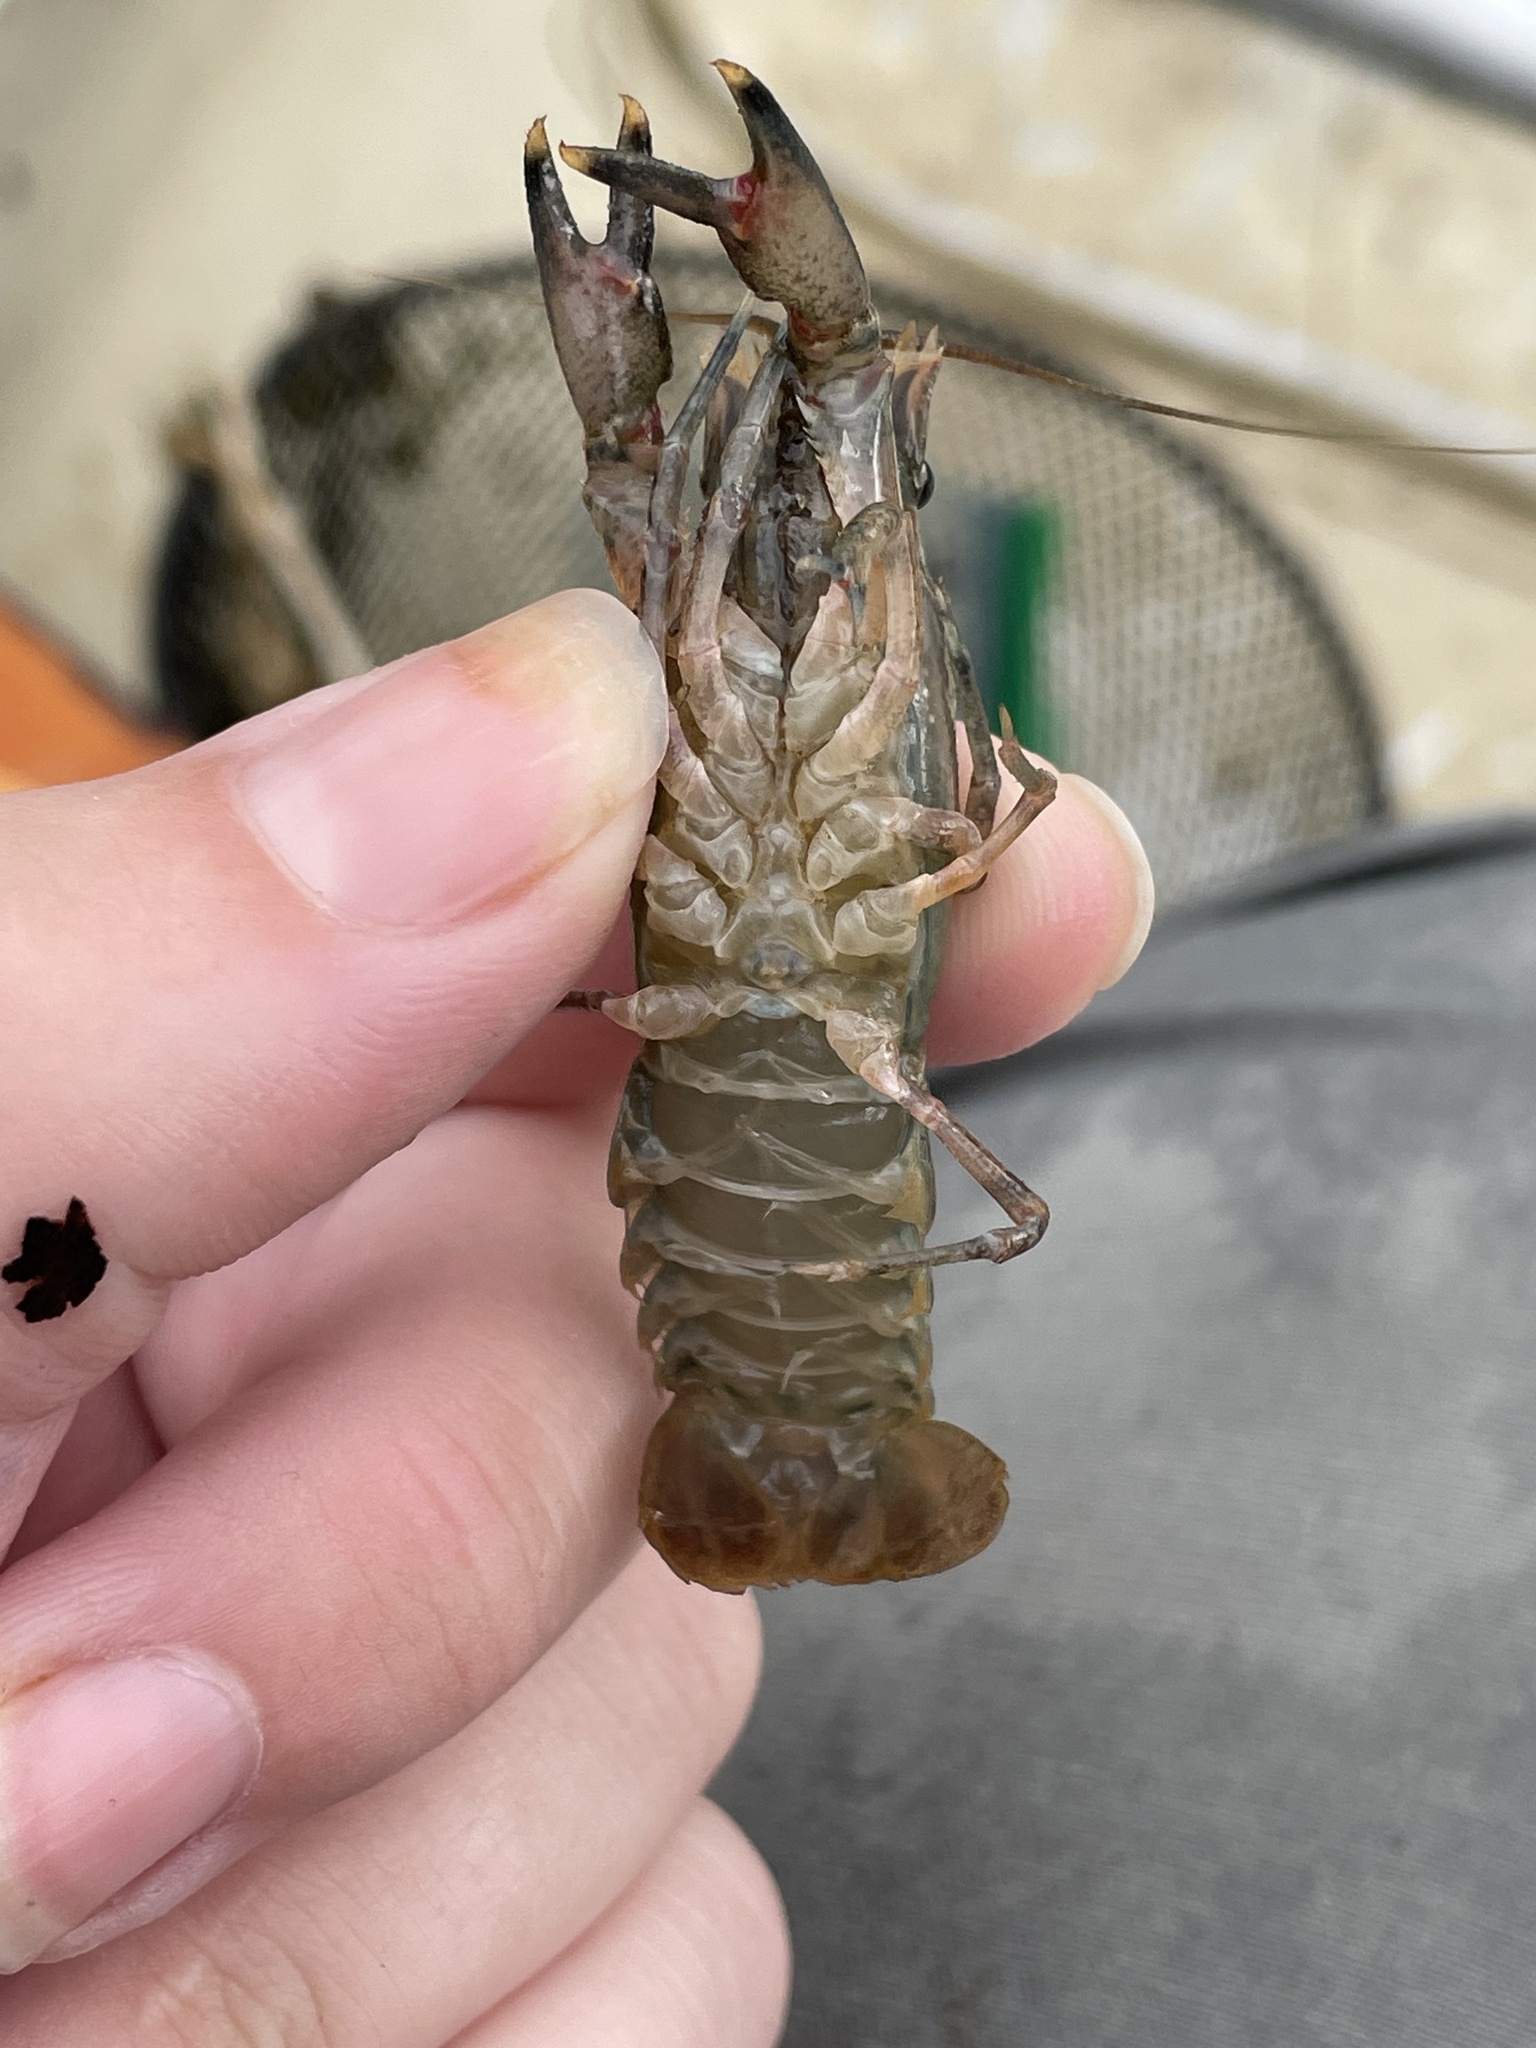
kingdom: Animalia
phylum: Arthropoda
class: Malacostraca
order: Decapoda
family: Cambaridae
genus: Faxonius
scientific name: Faxonius limosus
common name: American crayfish
